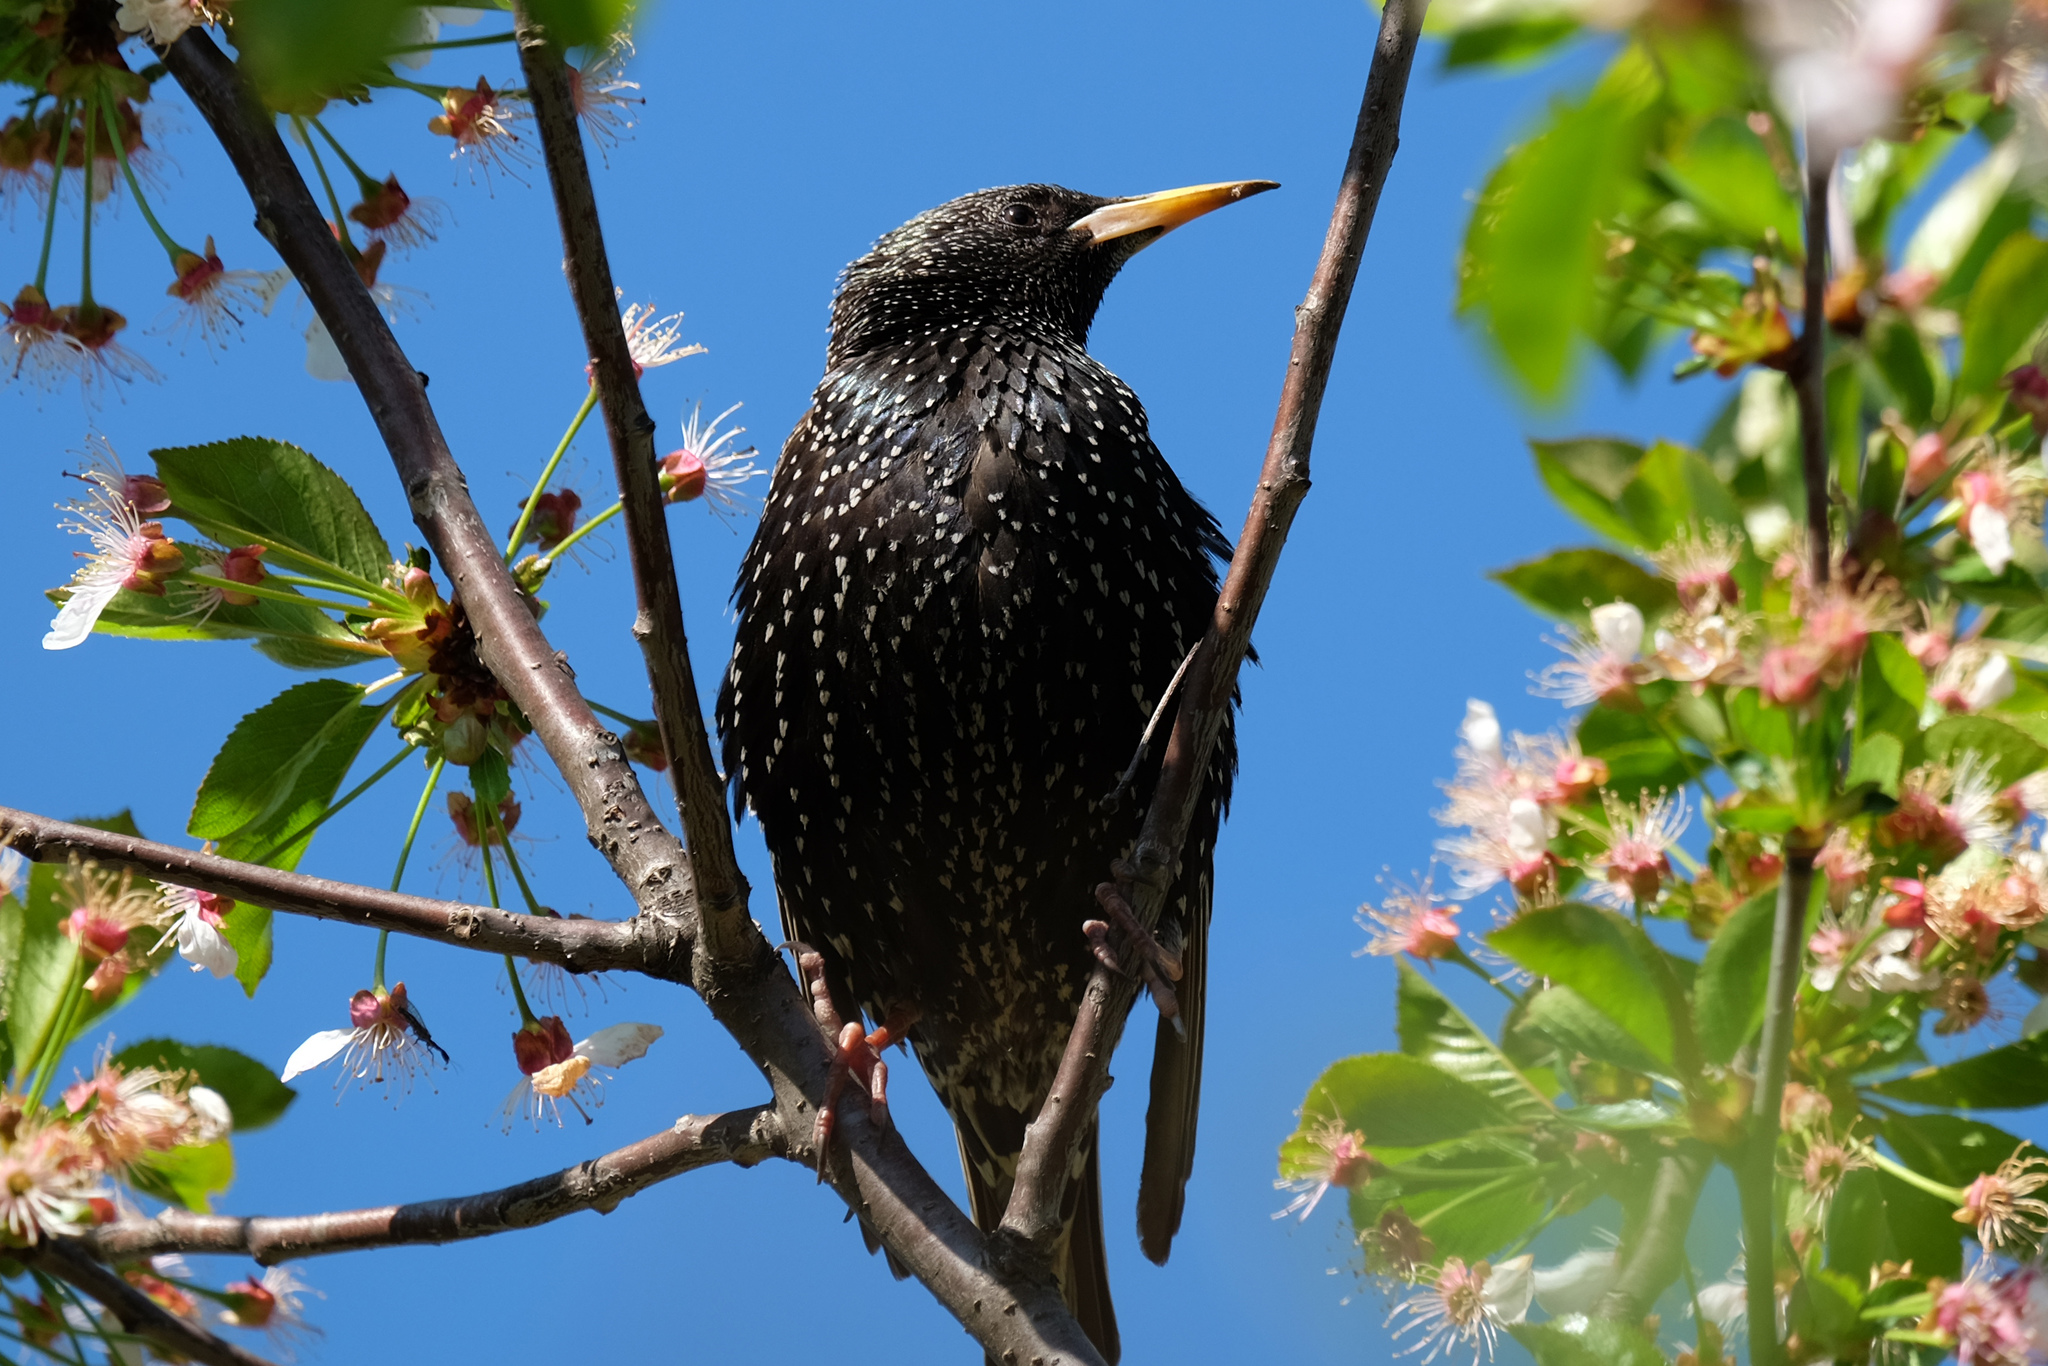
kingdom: Animalia
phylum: Chordata
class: Aves
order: Passeriformes
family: Sturnidae
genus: Sturnus
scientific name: Sturnus vulgaris
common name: Common starling
